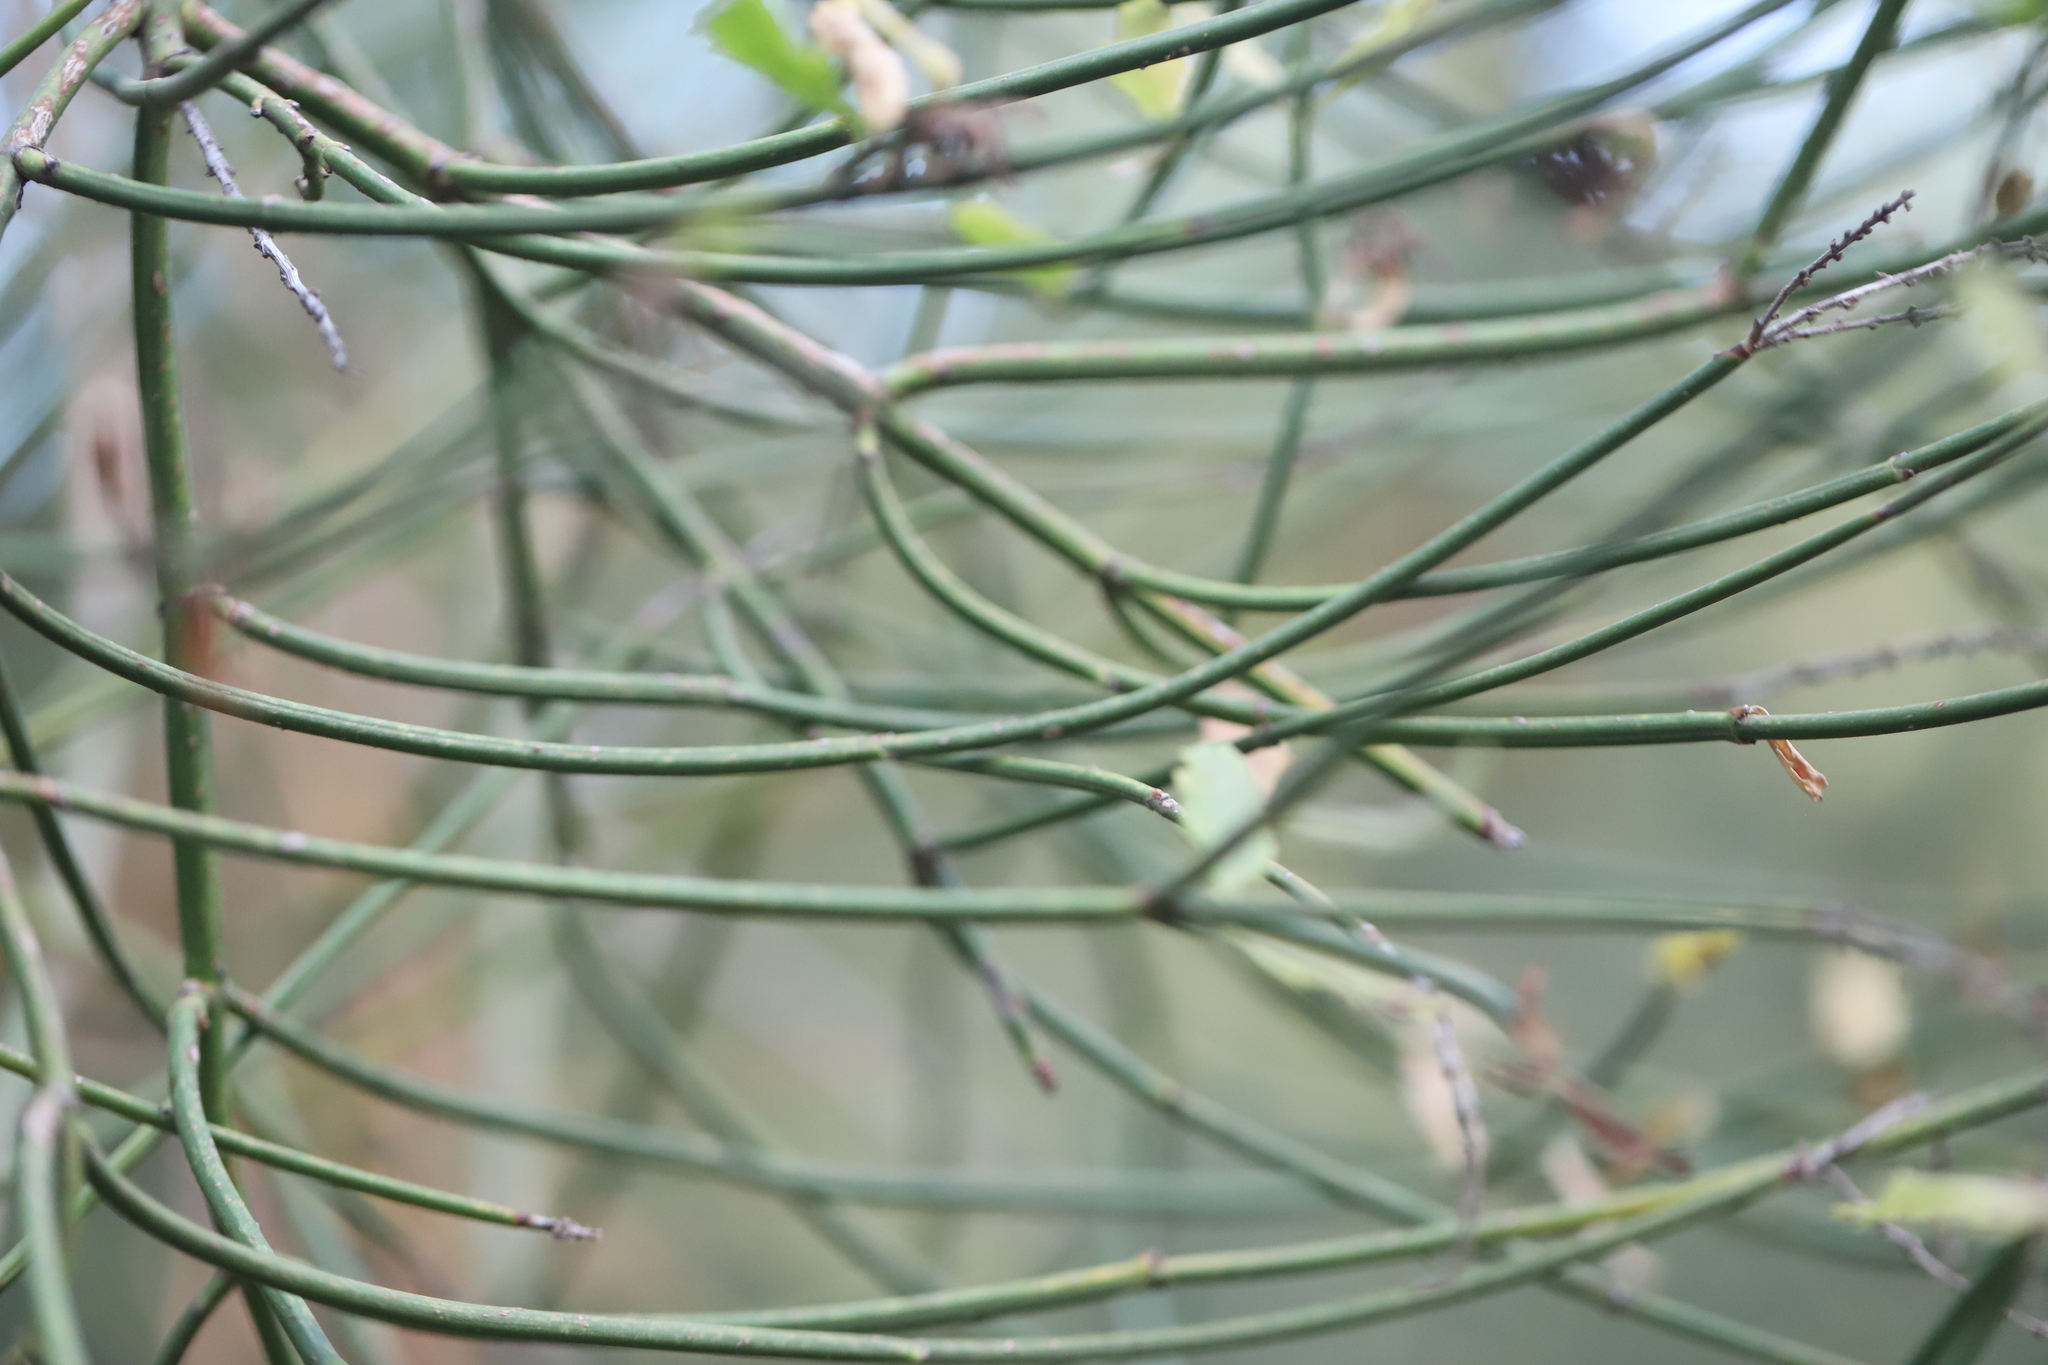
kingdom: Plantae
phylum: Tracheophyta
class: Magnoliopsida
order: Rosales
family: Rhamnaceae
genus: Retanilla
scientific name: Retanilla ephedra
